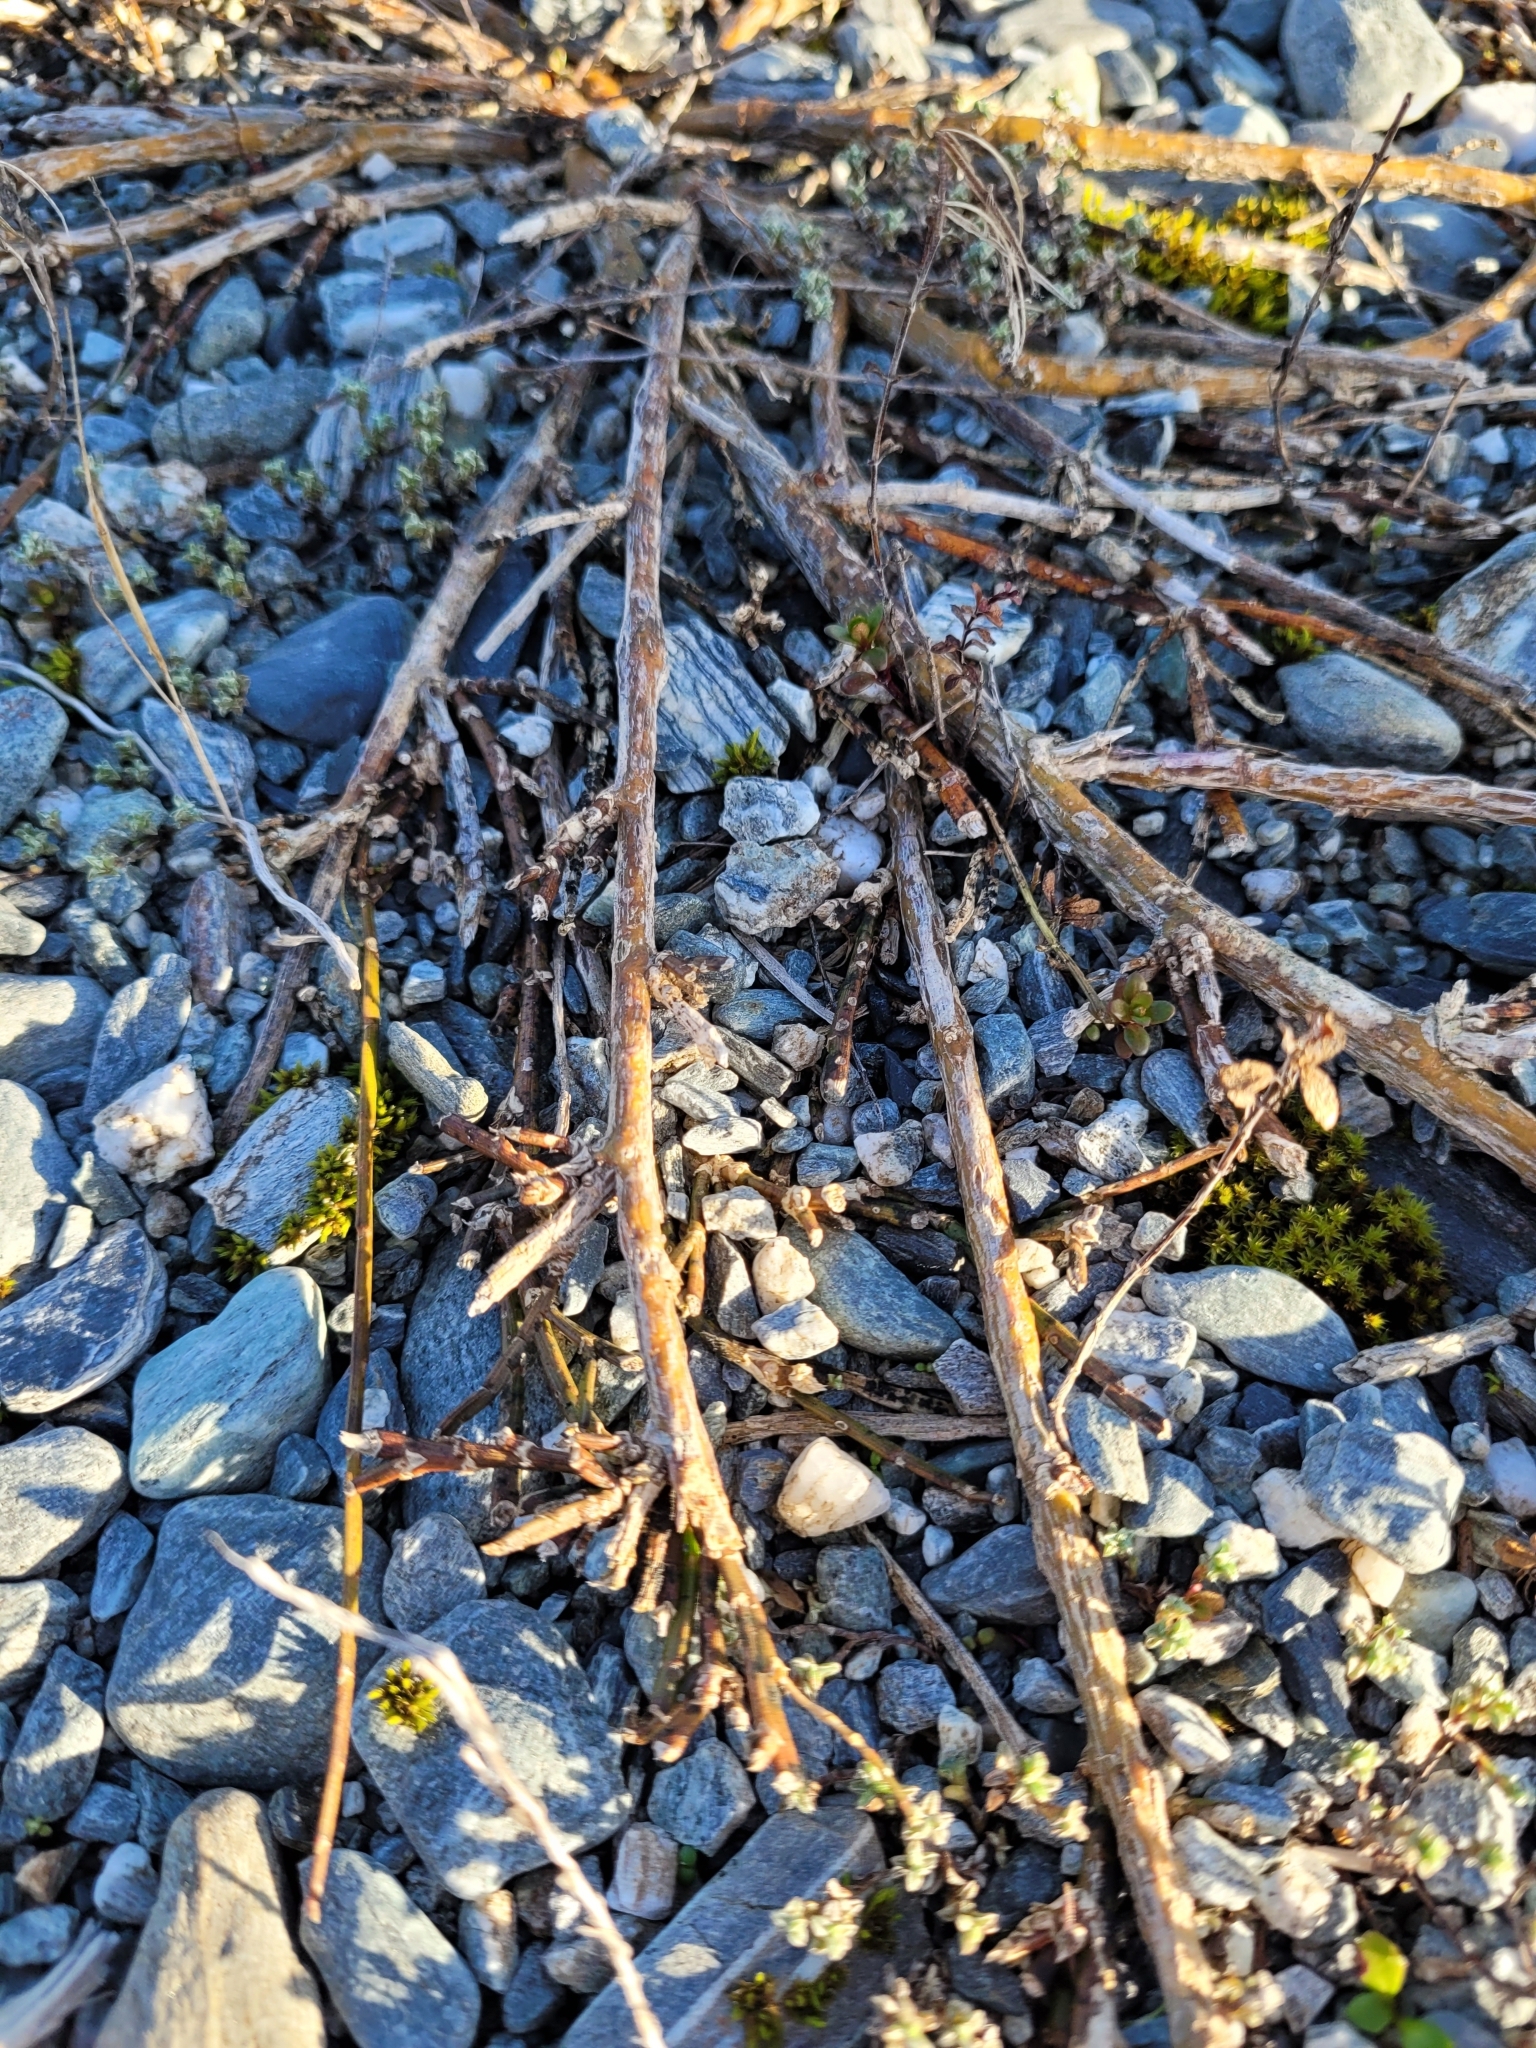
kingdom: Plantae
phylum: Tracheophyta
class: Magnoliopsida
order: Fabales
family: Fabaceae
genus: Carmichaelia
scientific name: Carmichaelia juncea
